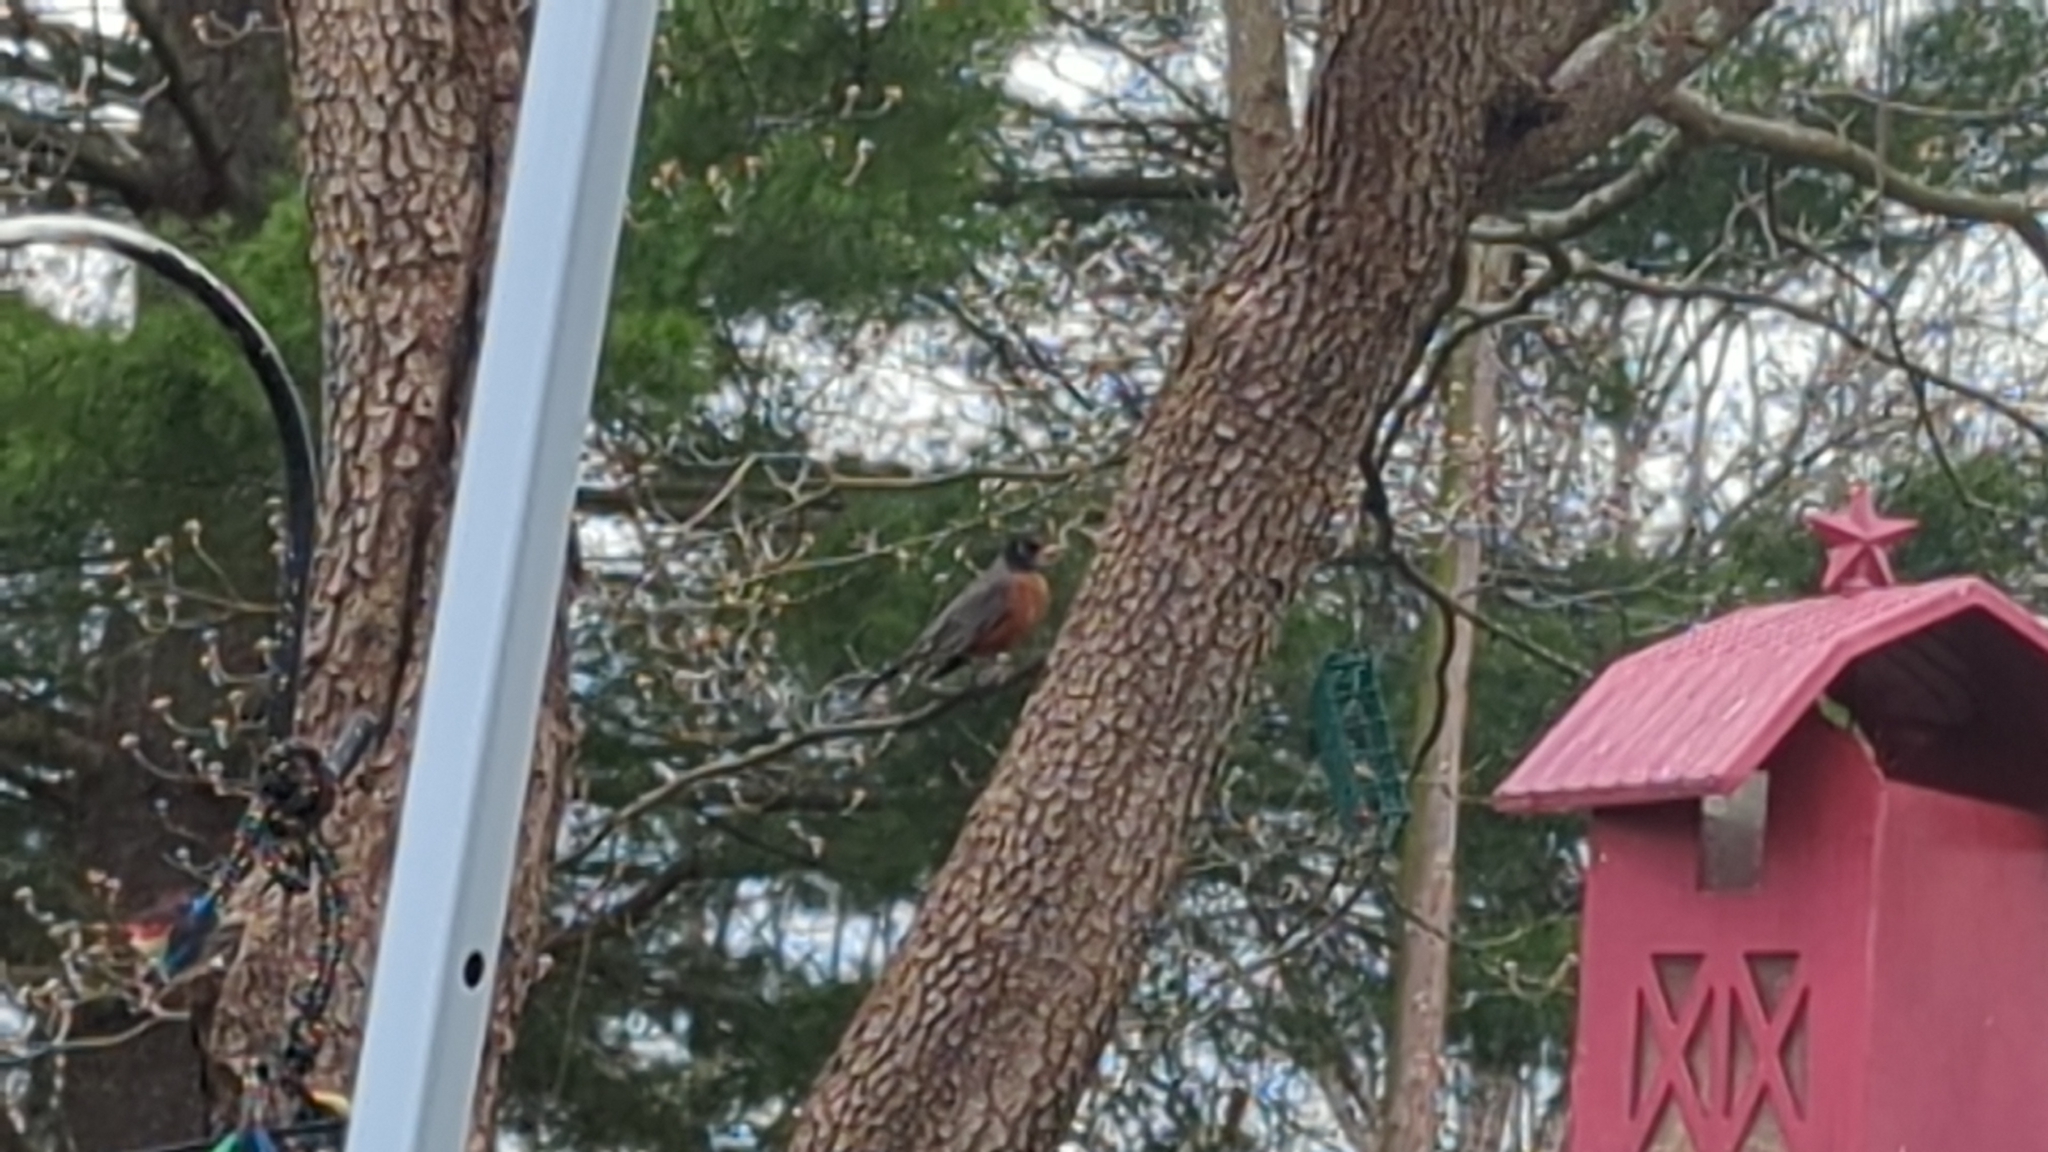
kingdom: Animalia
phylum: Chordata
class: Aves
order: Passeriformes
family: Turdidae
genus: Turdus
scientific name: Turdus migratorius
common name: American robin
